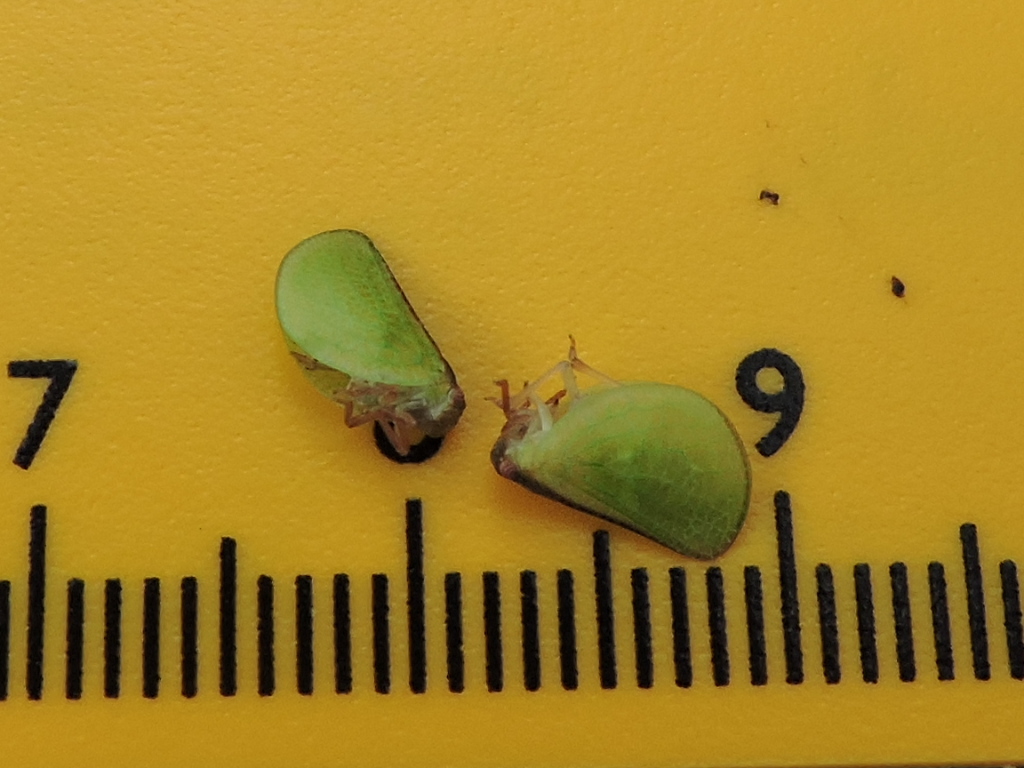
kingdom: Animalia
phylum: Arthropoda
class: Insecta
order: Hemiptera
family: Acanaloniidae
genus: Acanalonia
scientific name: Acanalonia bivittata
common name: Two-striped planthopper
